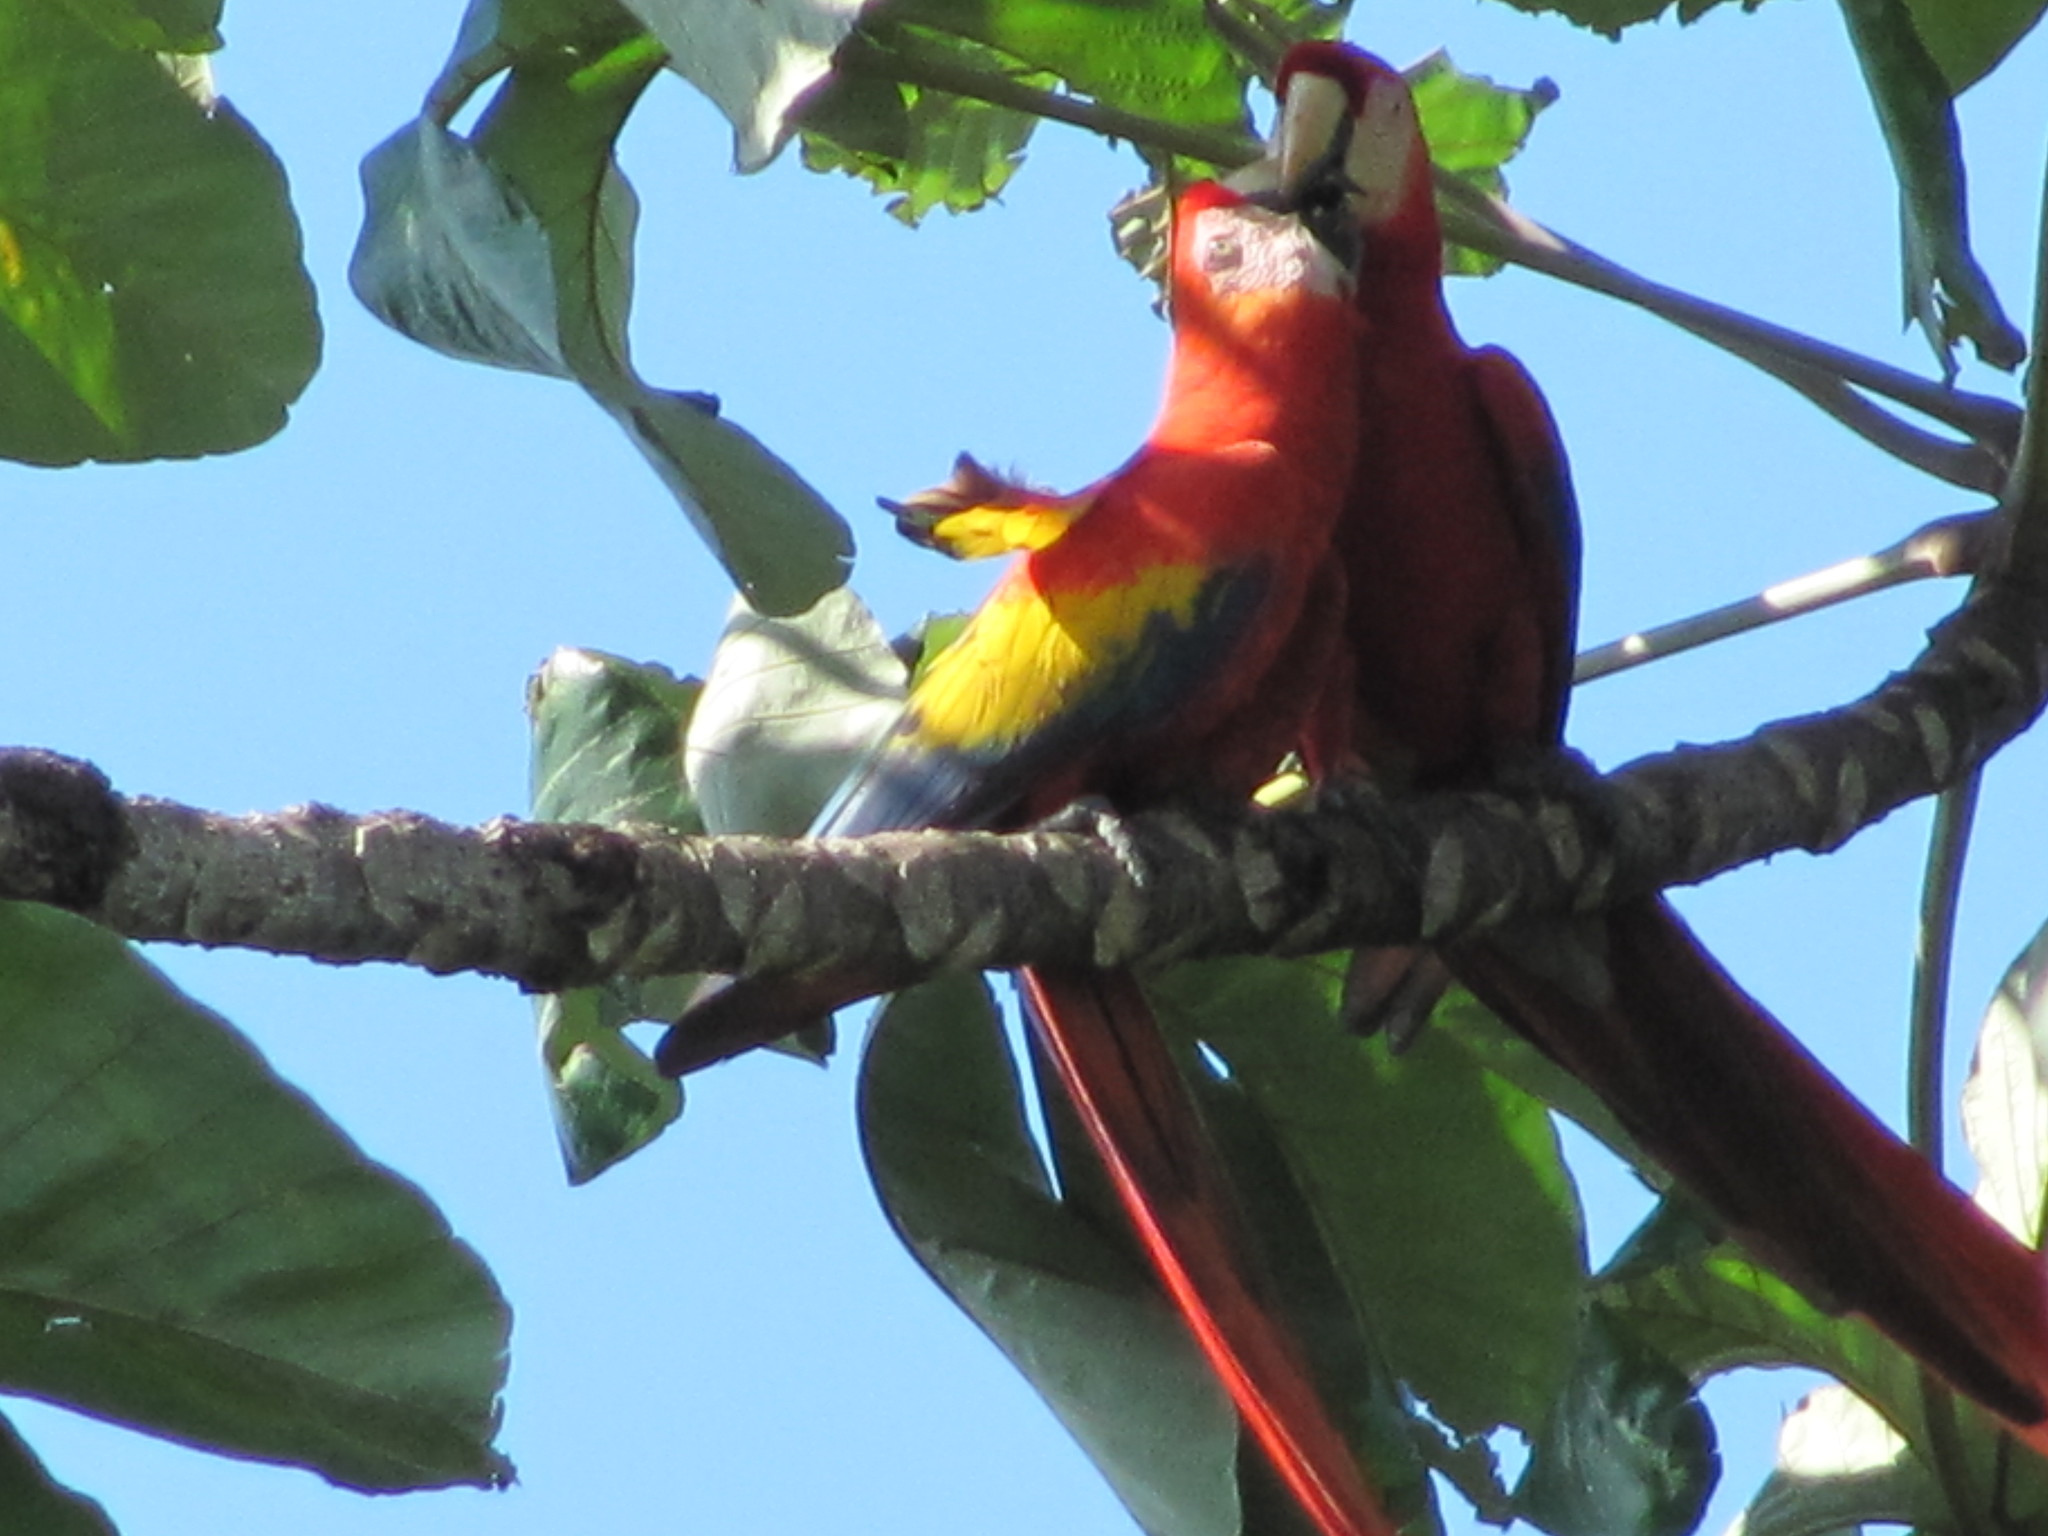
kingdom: Animalia
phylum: Chordata
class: Aves
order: Psittaciformes
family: Psittacidae
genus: Ara
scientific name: Ara macao
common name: Scarlet macaw
